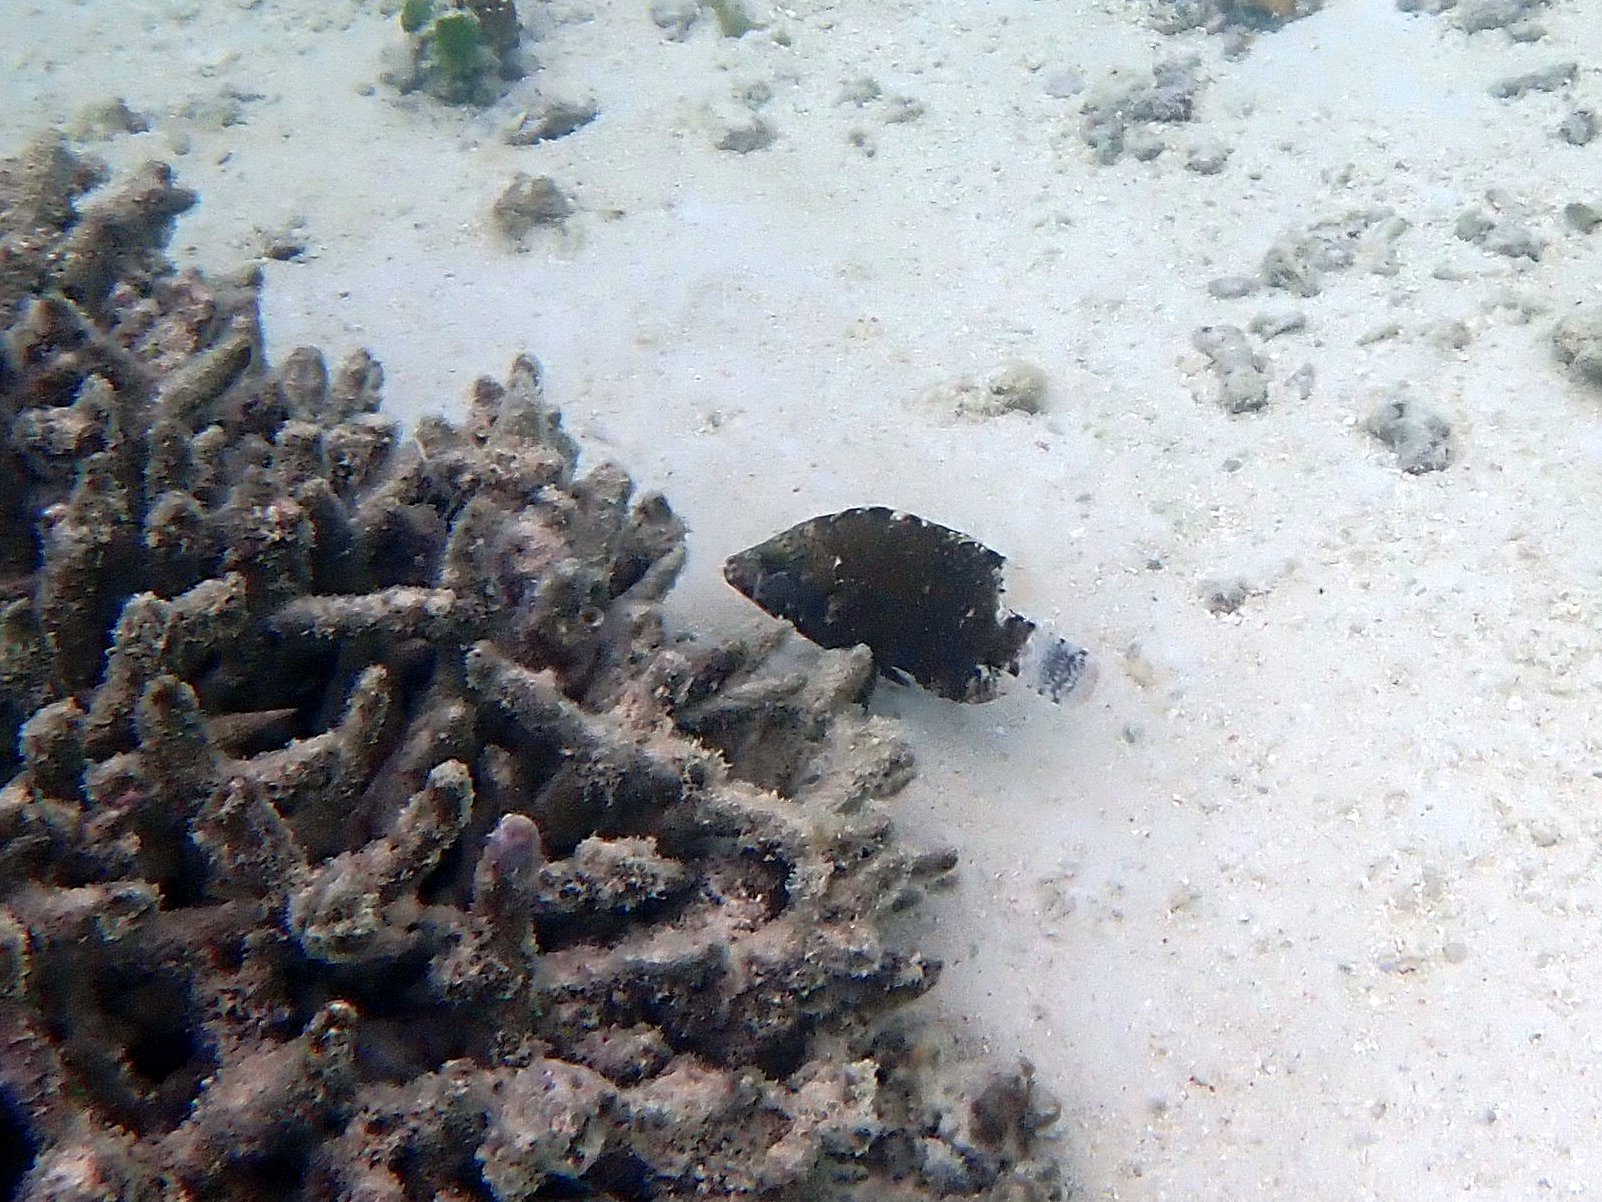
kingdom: Animalia
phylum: Chordata
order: Perciformes
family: Labridae
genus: Cheilinus
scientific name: Cheilinus chlorourus
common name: Floral wrasse
